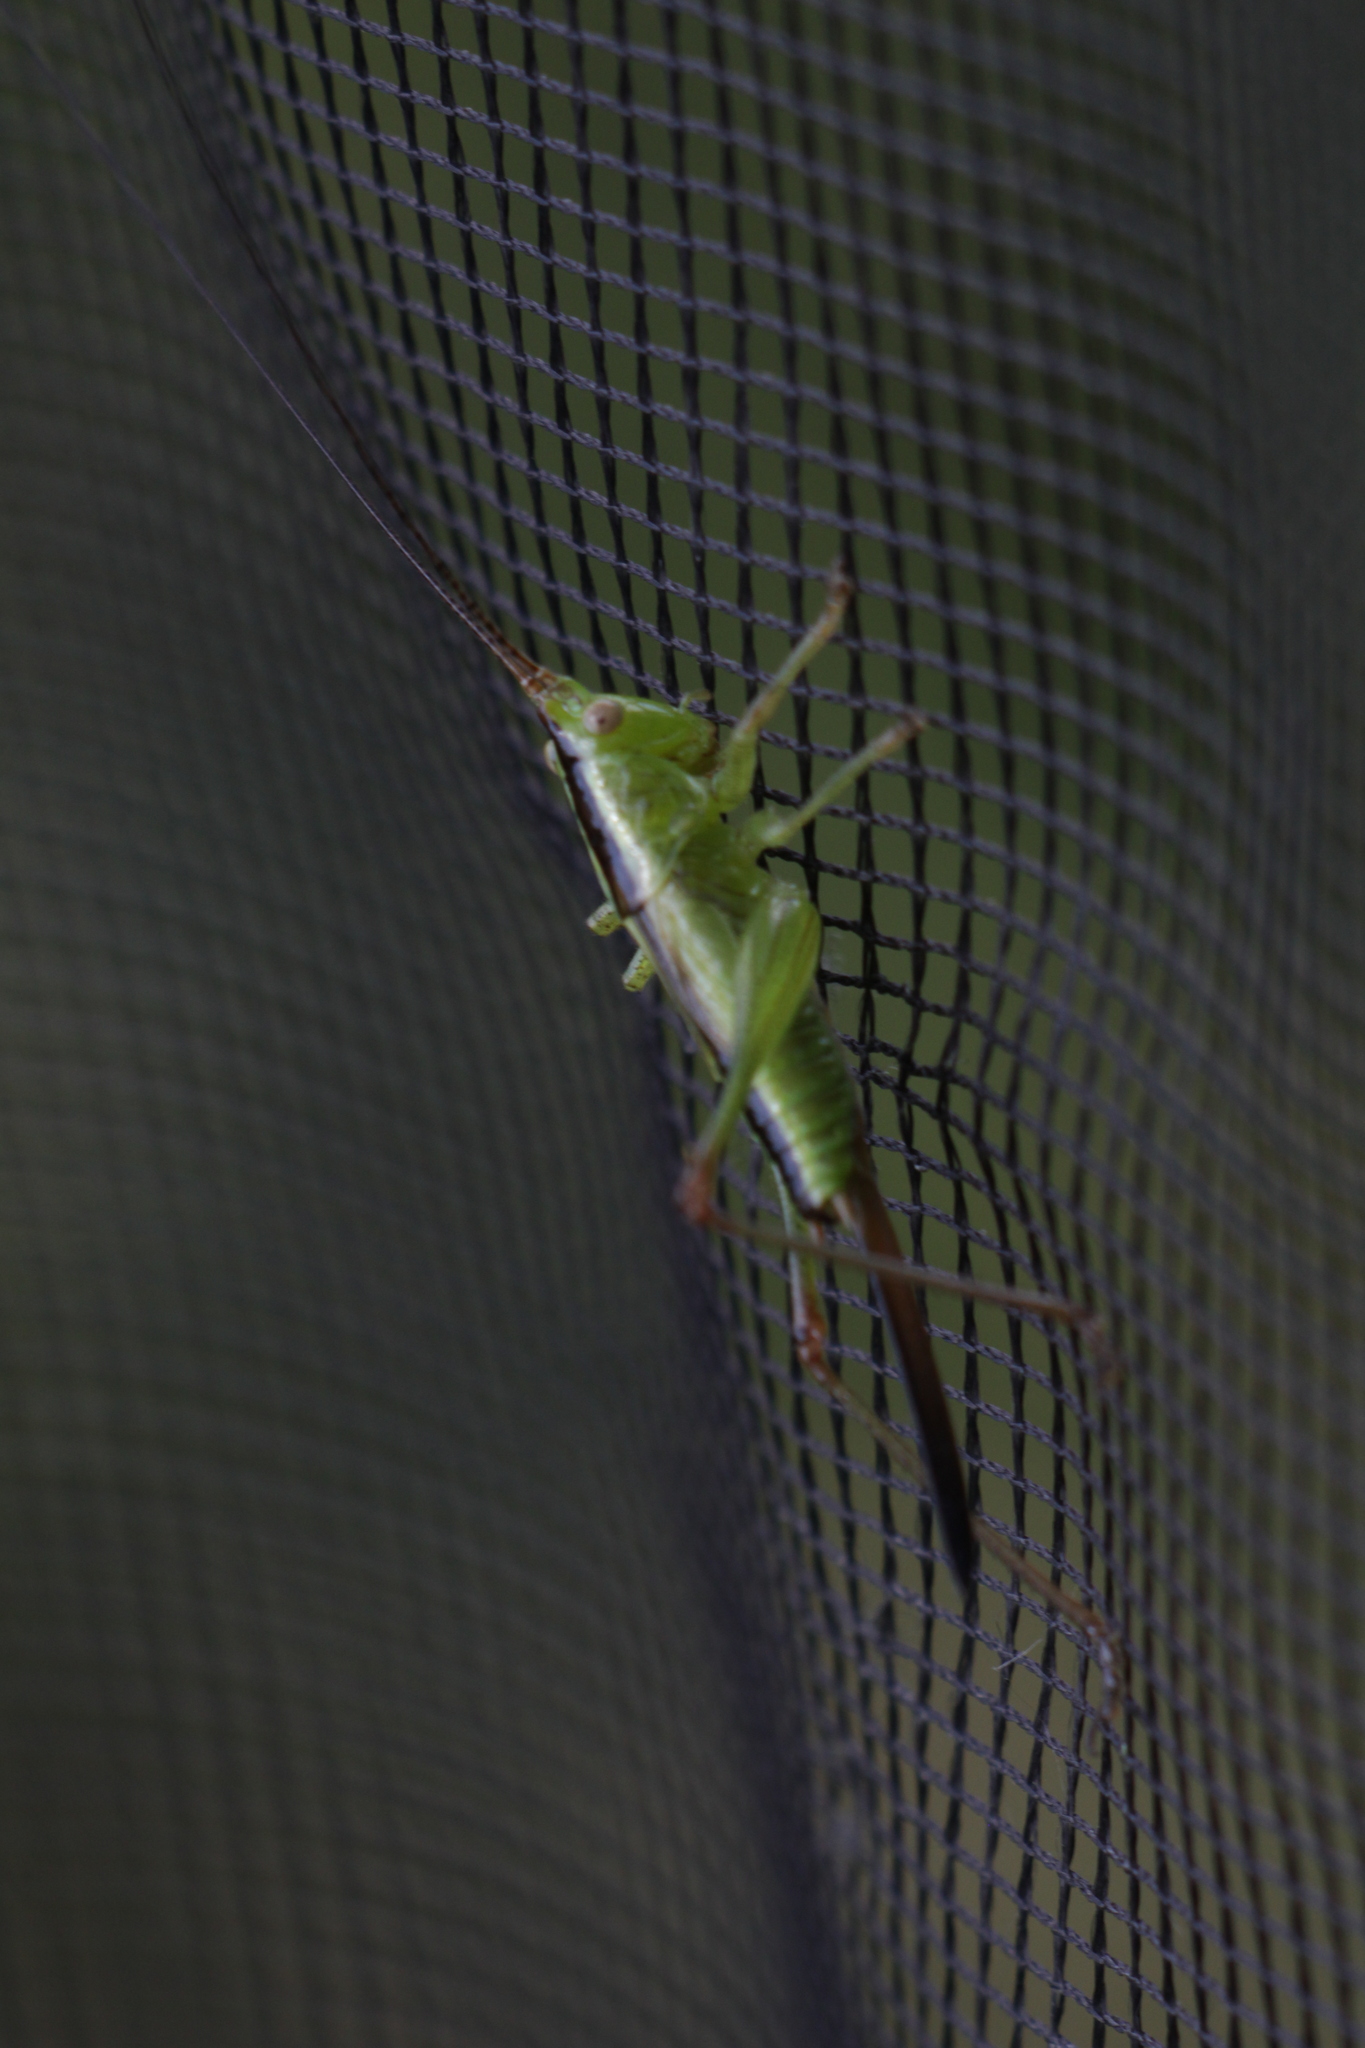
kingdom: Animalia
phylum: Arthropoda
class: Insecta
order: Orthoptera
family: Tettigoniidae
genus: Conocephalus
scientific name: Conocephalus fuscus
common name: Long-winged conehead
